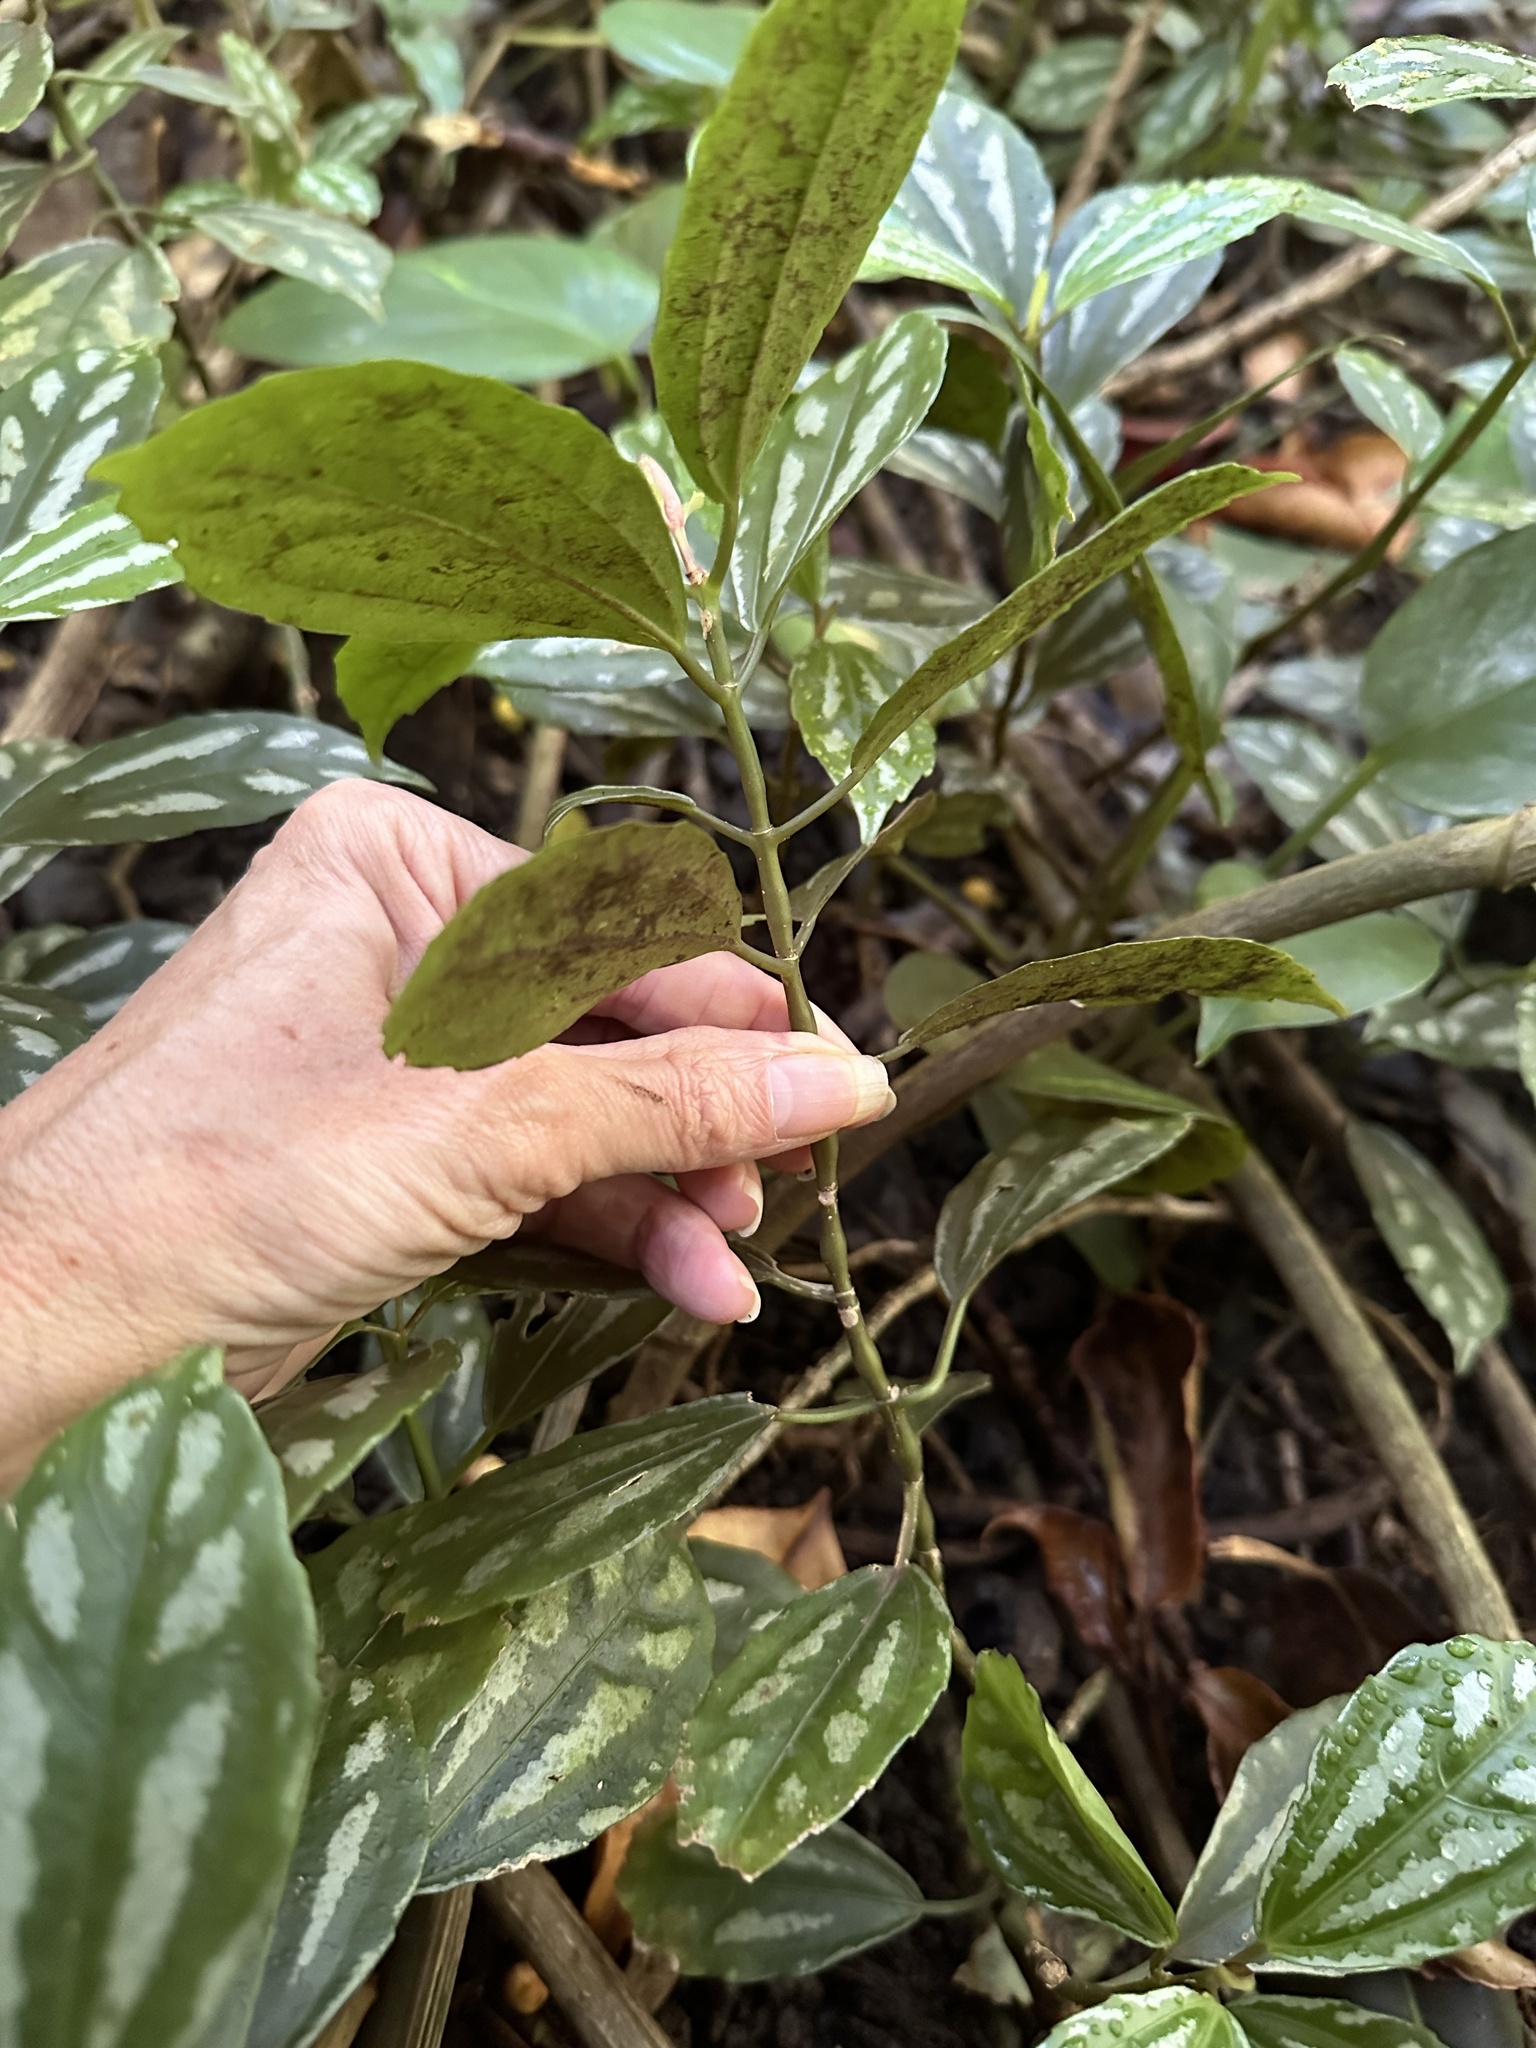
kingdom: Plantae
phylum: Tracheophyta
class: Magnoliopsida
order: Rosales
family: Urticaceae
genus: Pilea
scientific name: Pilea cadierei
